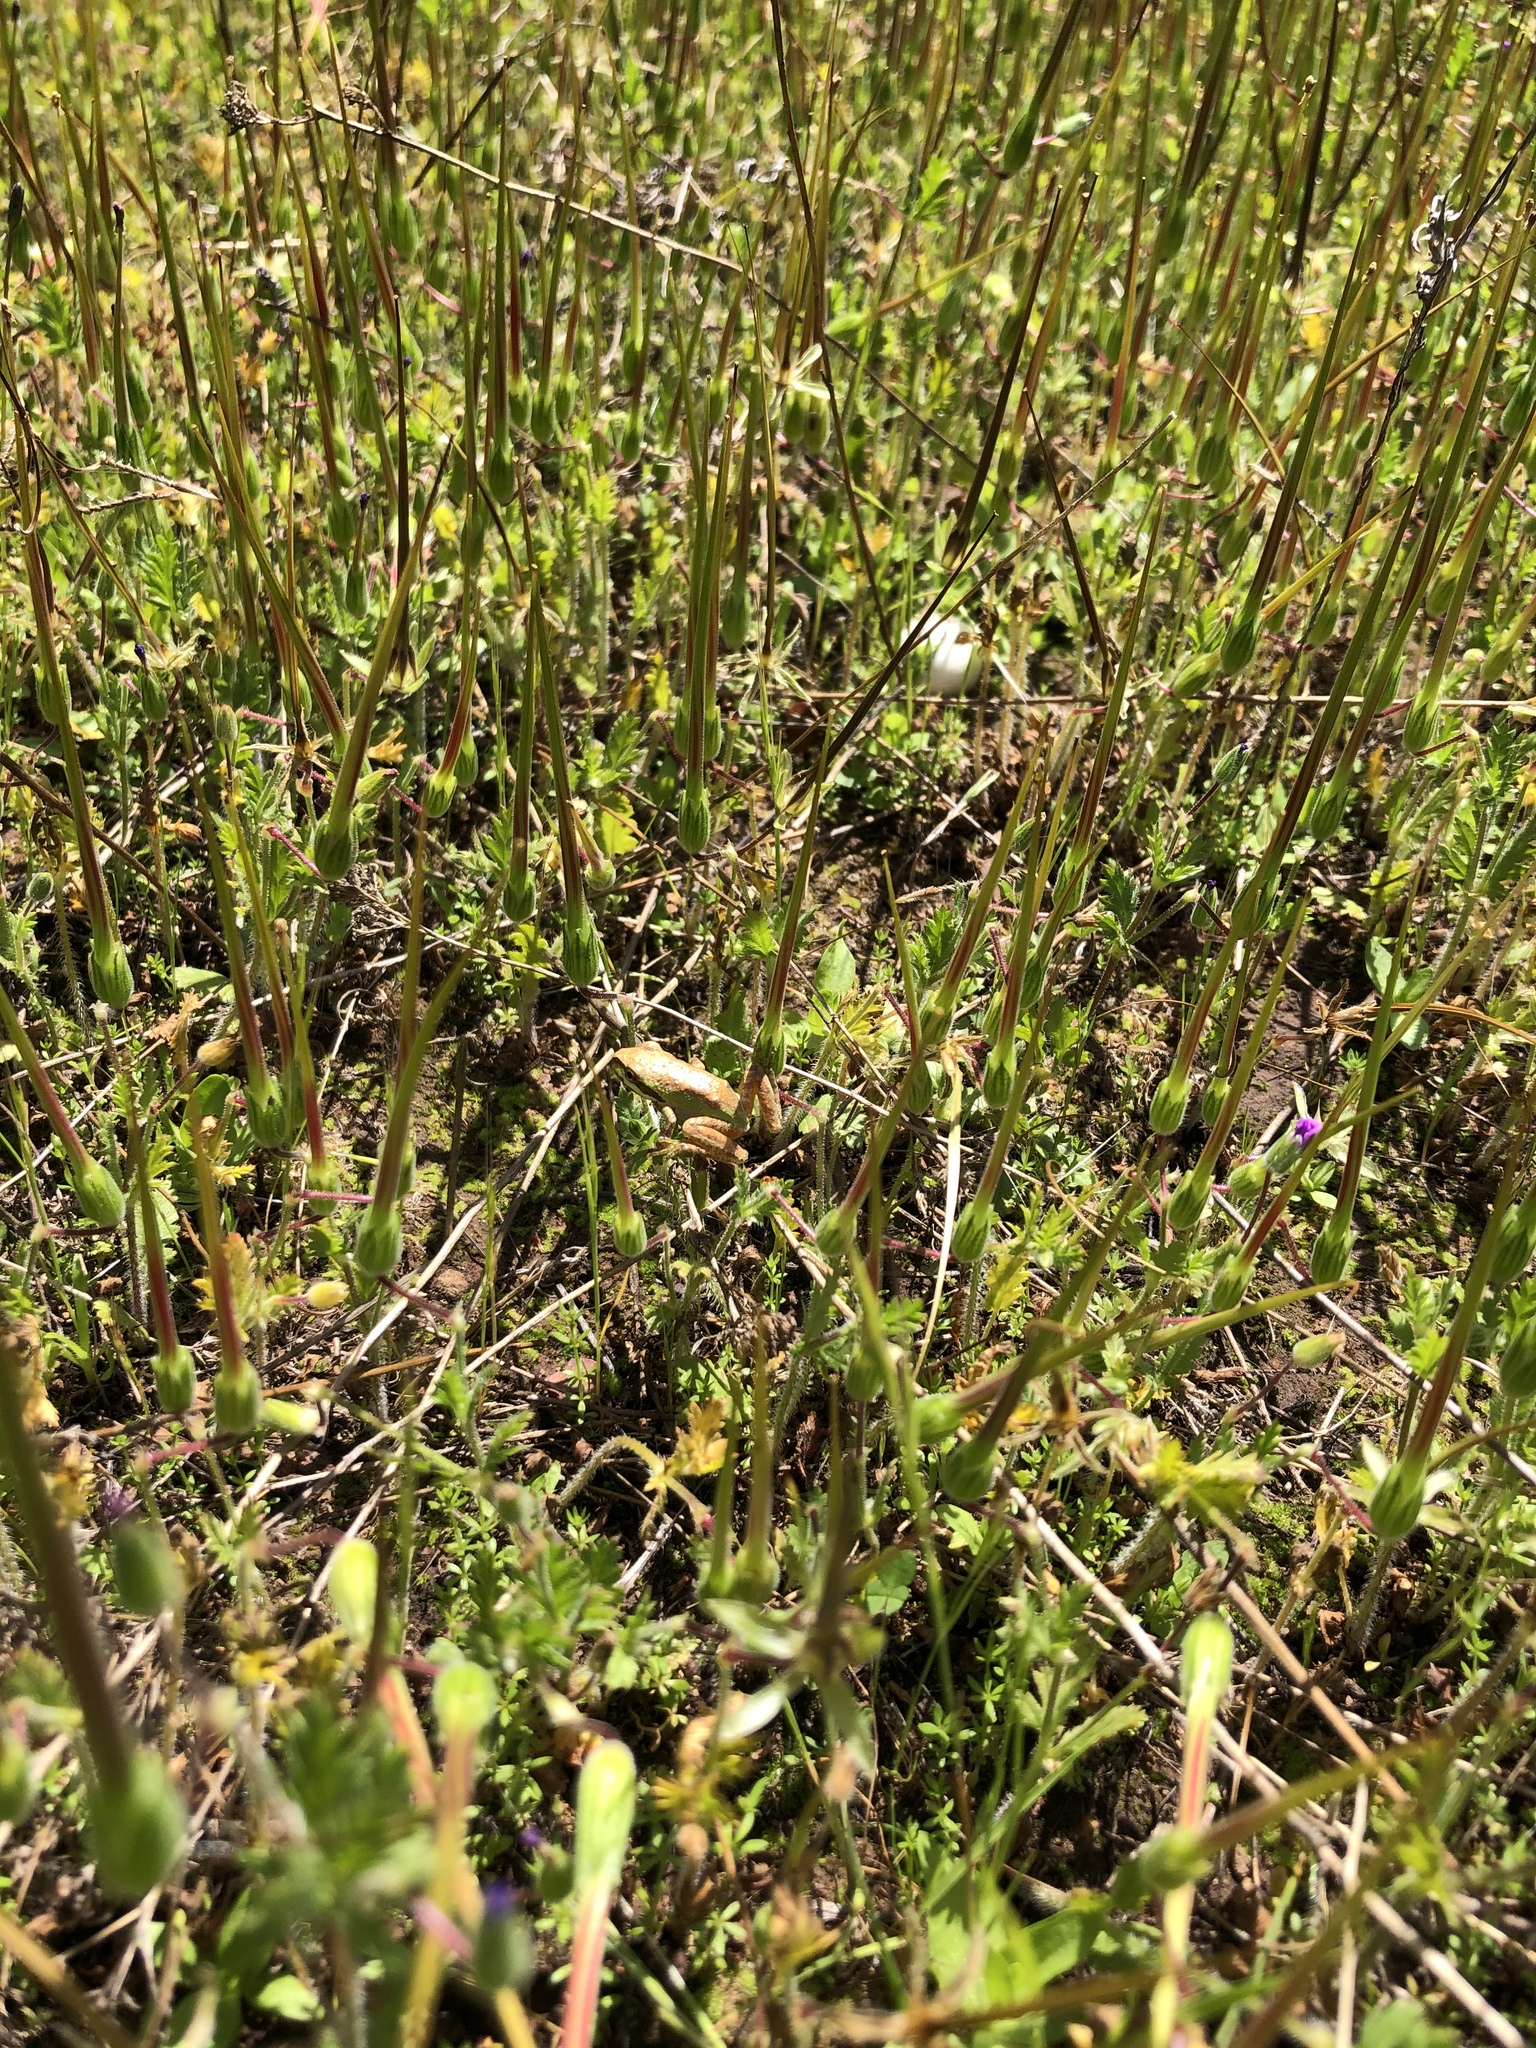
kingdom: Animalia
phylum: Chordata
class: Amphibia
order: Anura
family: Hylidae
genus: Pseudacris
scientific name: Pseudacris regilla
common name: Pacific chorus frog
